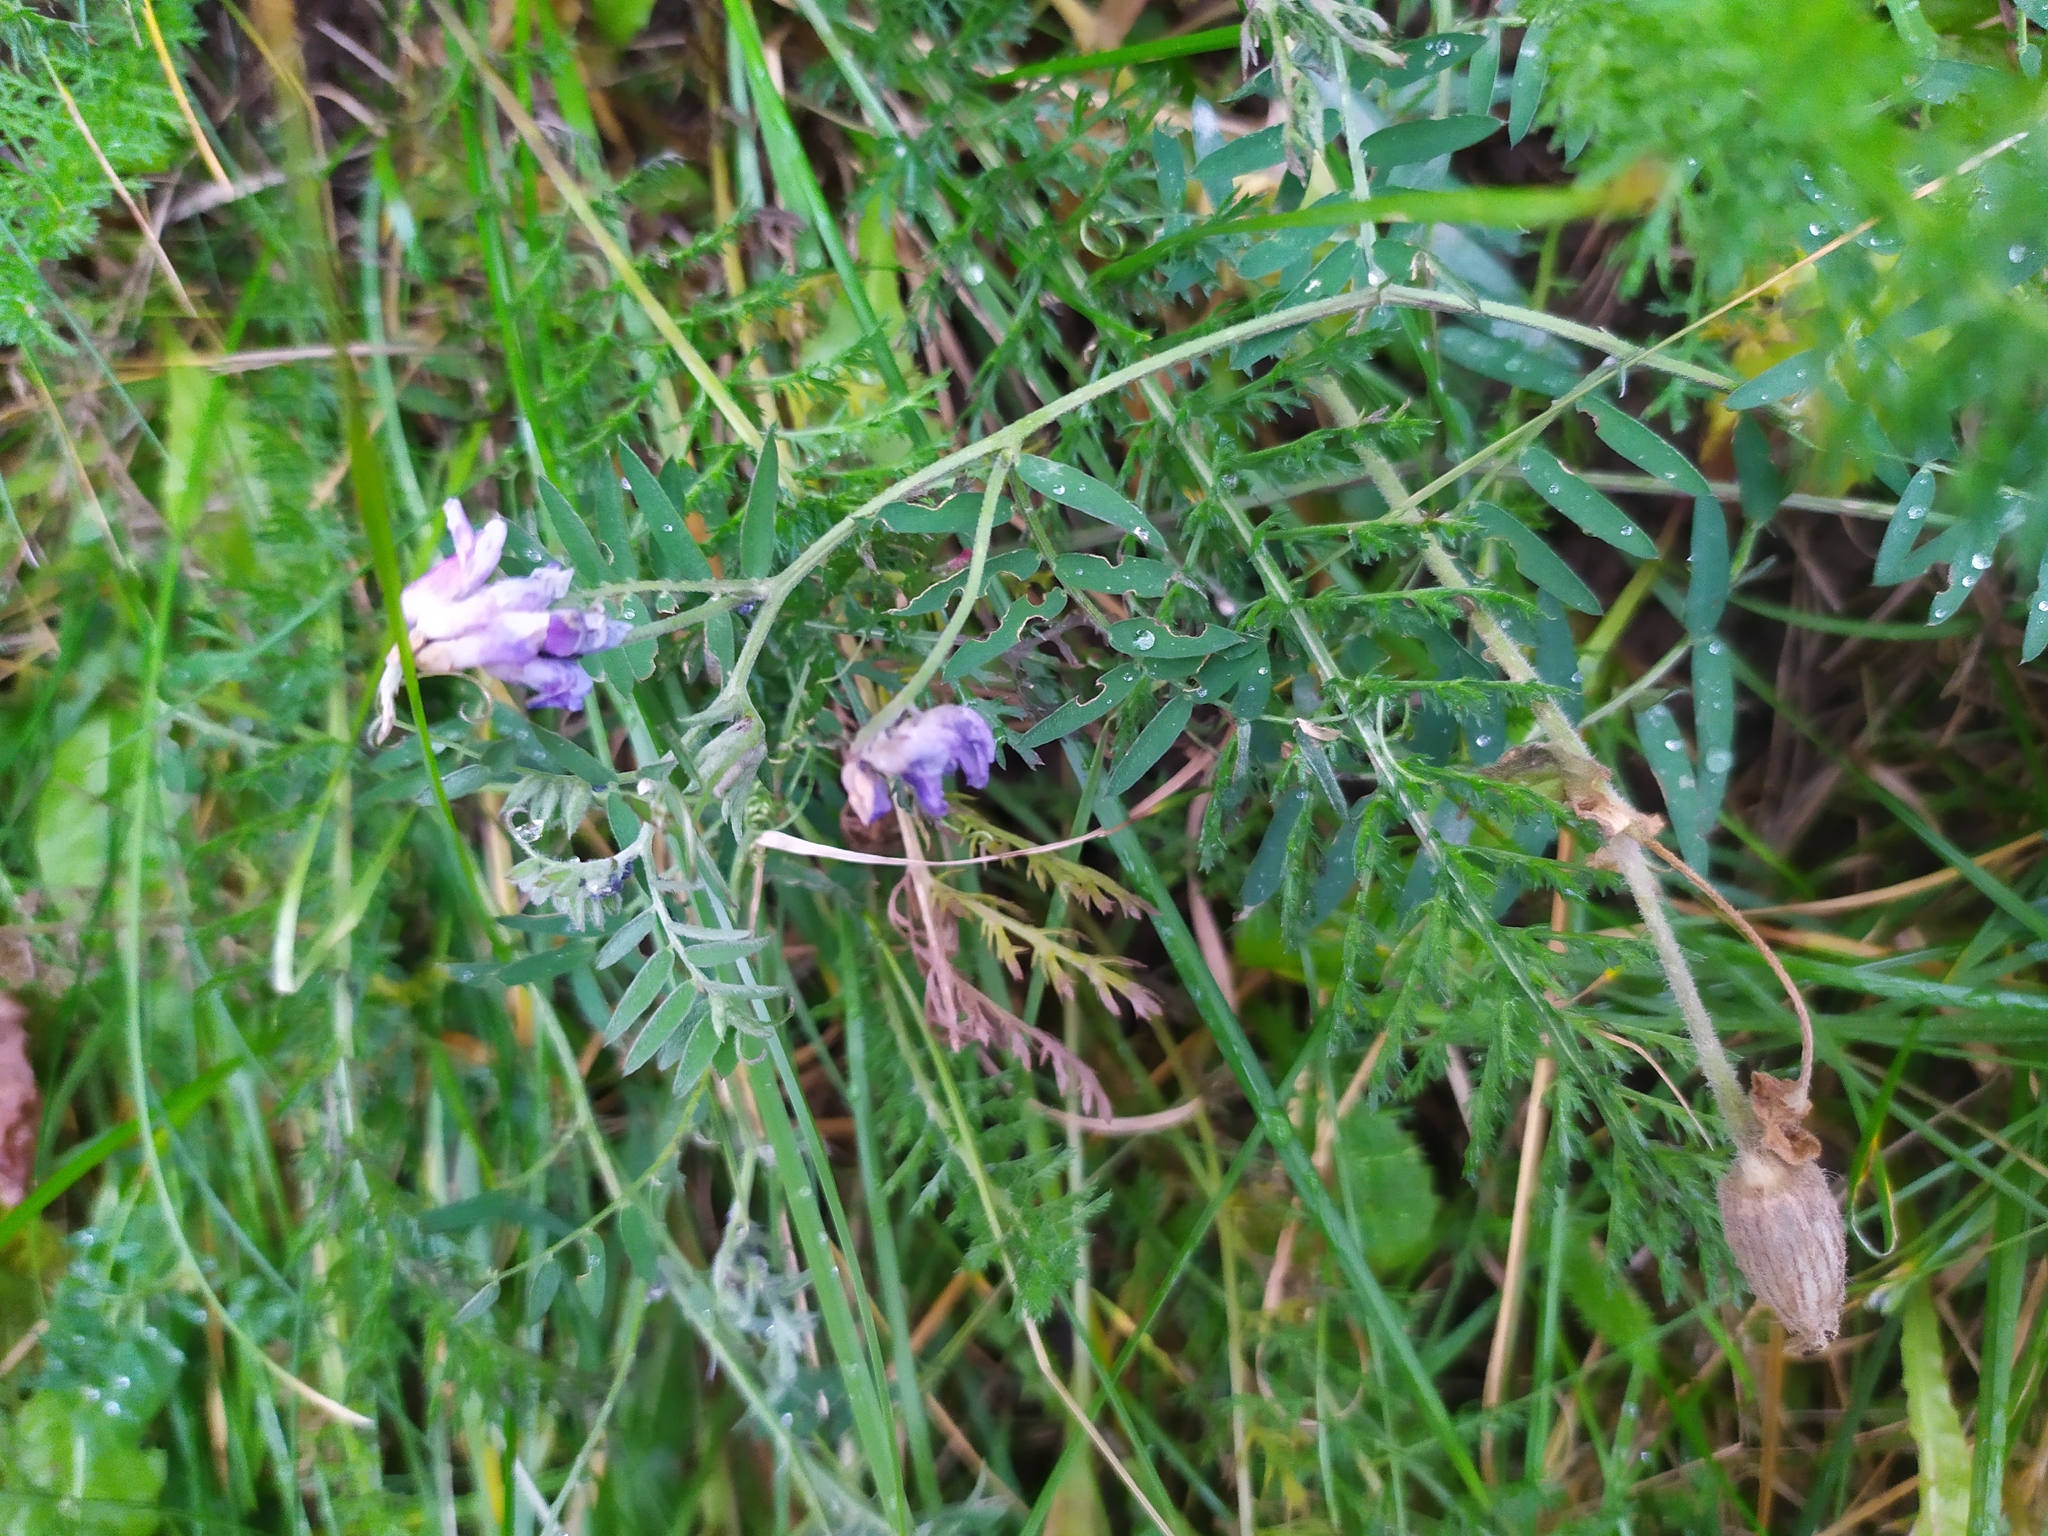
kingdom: Plantae
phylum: Tracheophyta
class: Magnoliopsida
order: Fabales
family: Fabaceae
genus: Vicia
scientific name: Vicia cracca
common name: Bird vetch
